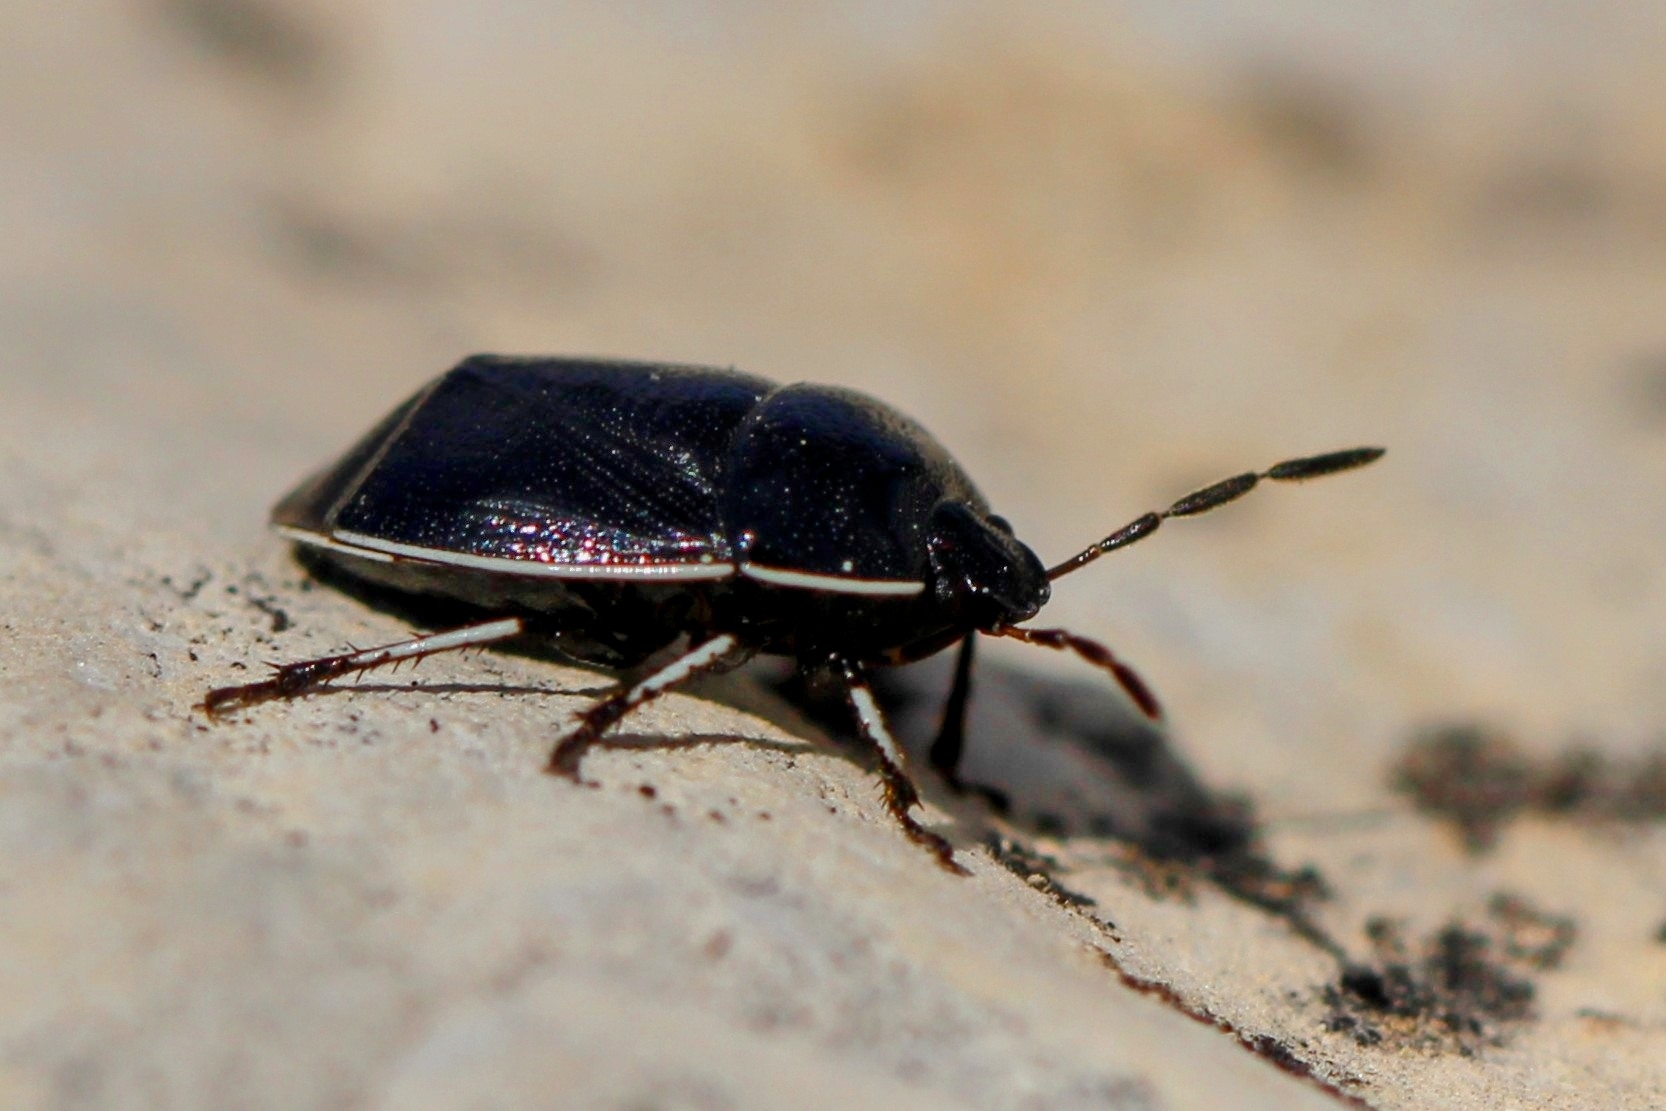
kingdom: Animalia
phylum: Arthropoda
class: Insecta
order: Hemiptera
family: Cydnidae
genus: Sehirus
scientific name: Sehirus cinctus
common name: White-margined burrower bug
